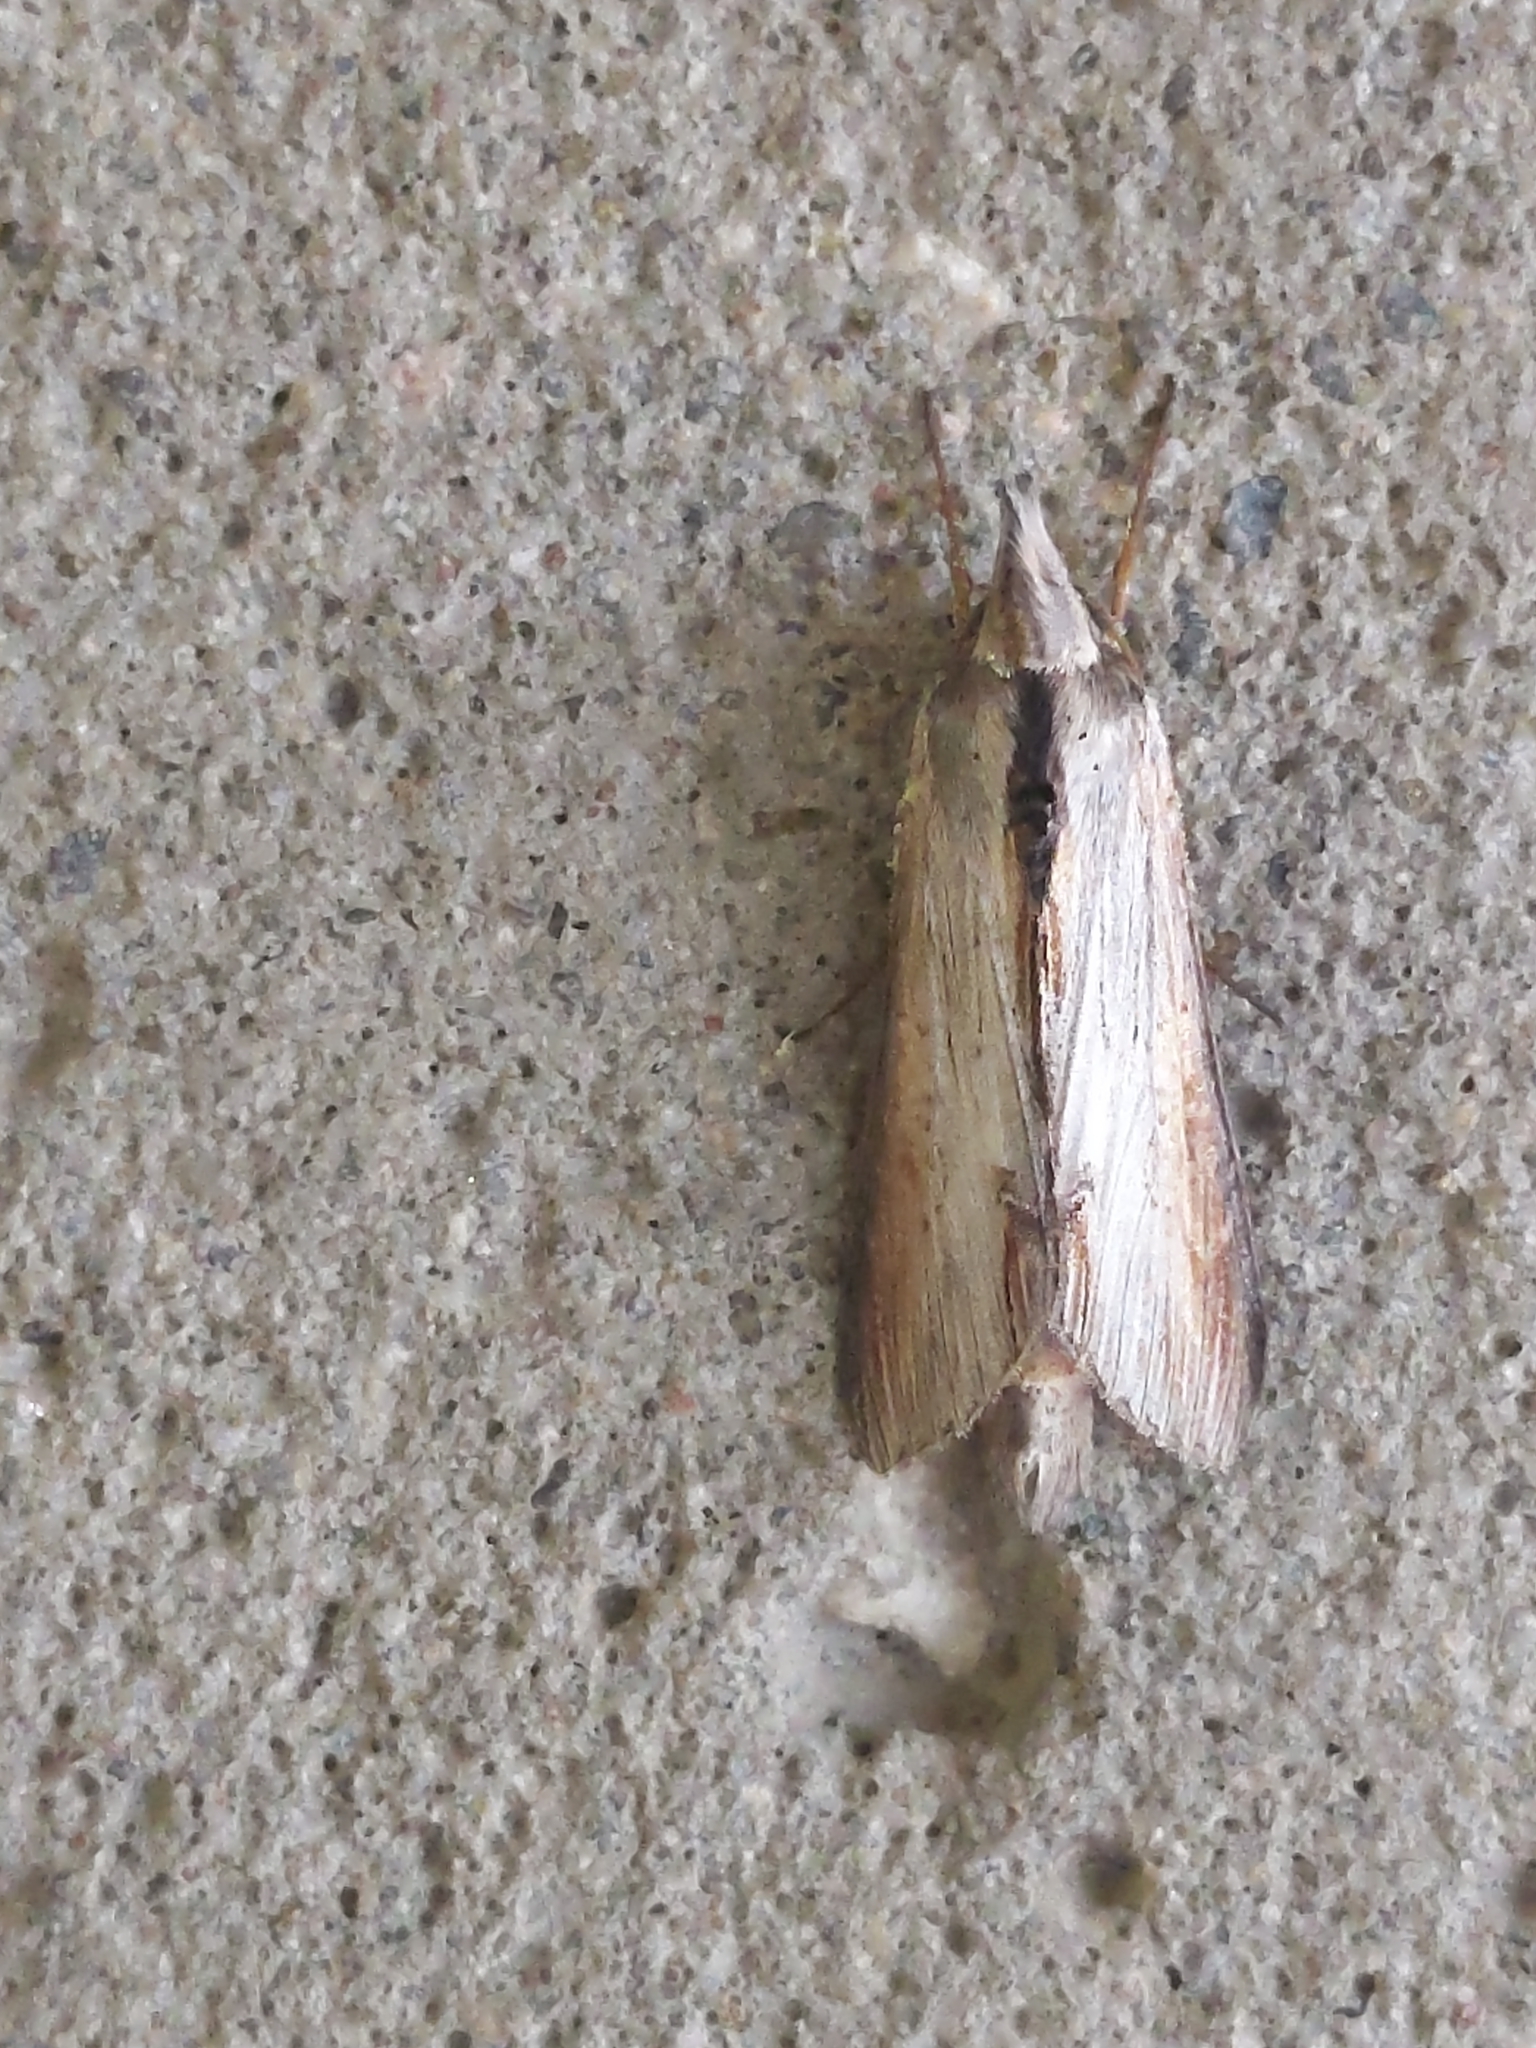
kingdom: Animalia
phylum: Arthropoda
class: Insecta
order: Lepidoptera
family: Noctuidae
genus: Cucullia
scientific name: Cucullia convexipennis
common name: Brown-hooded owlet
